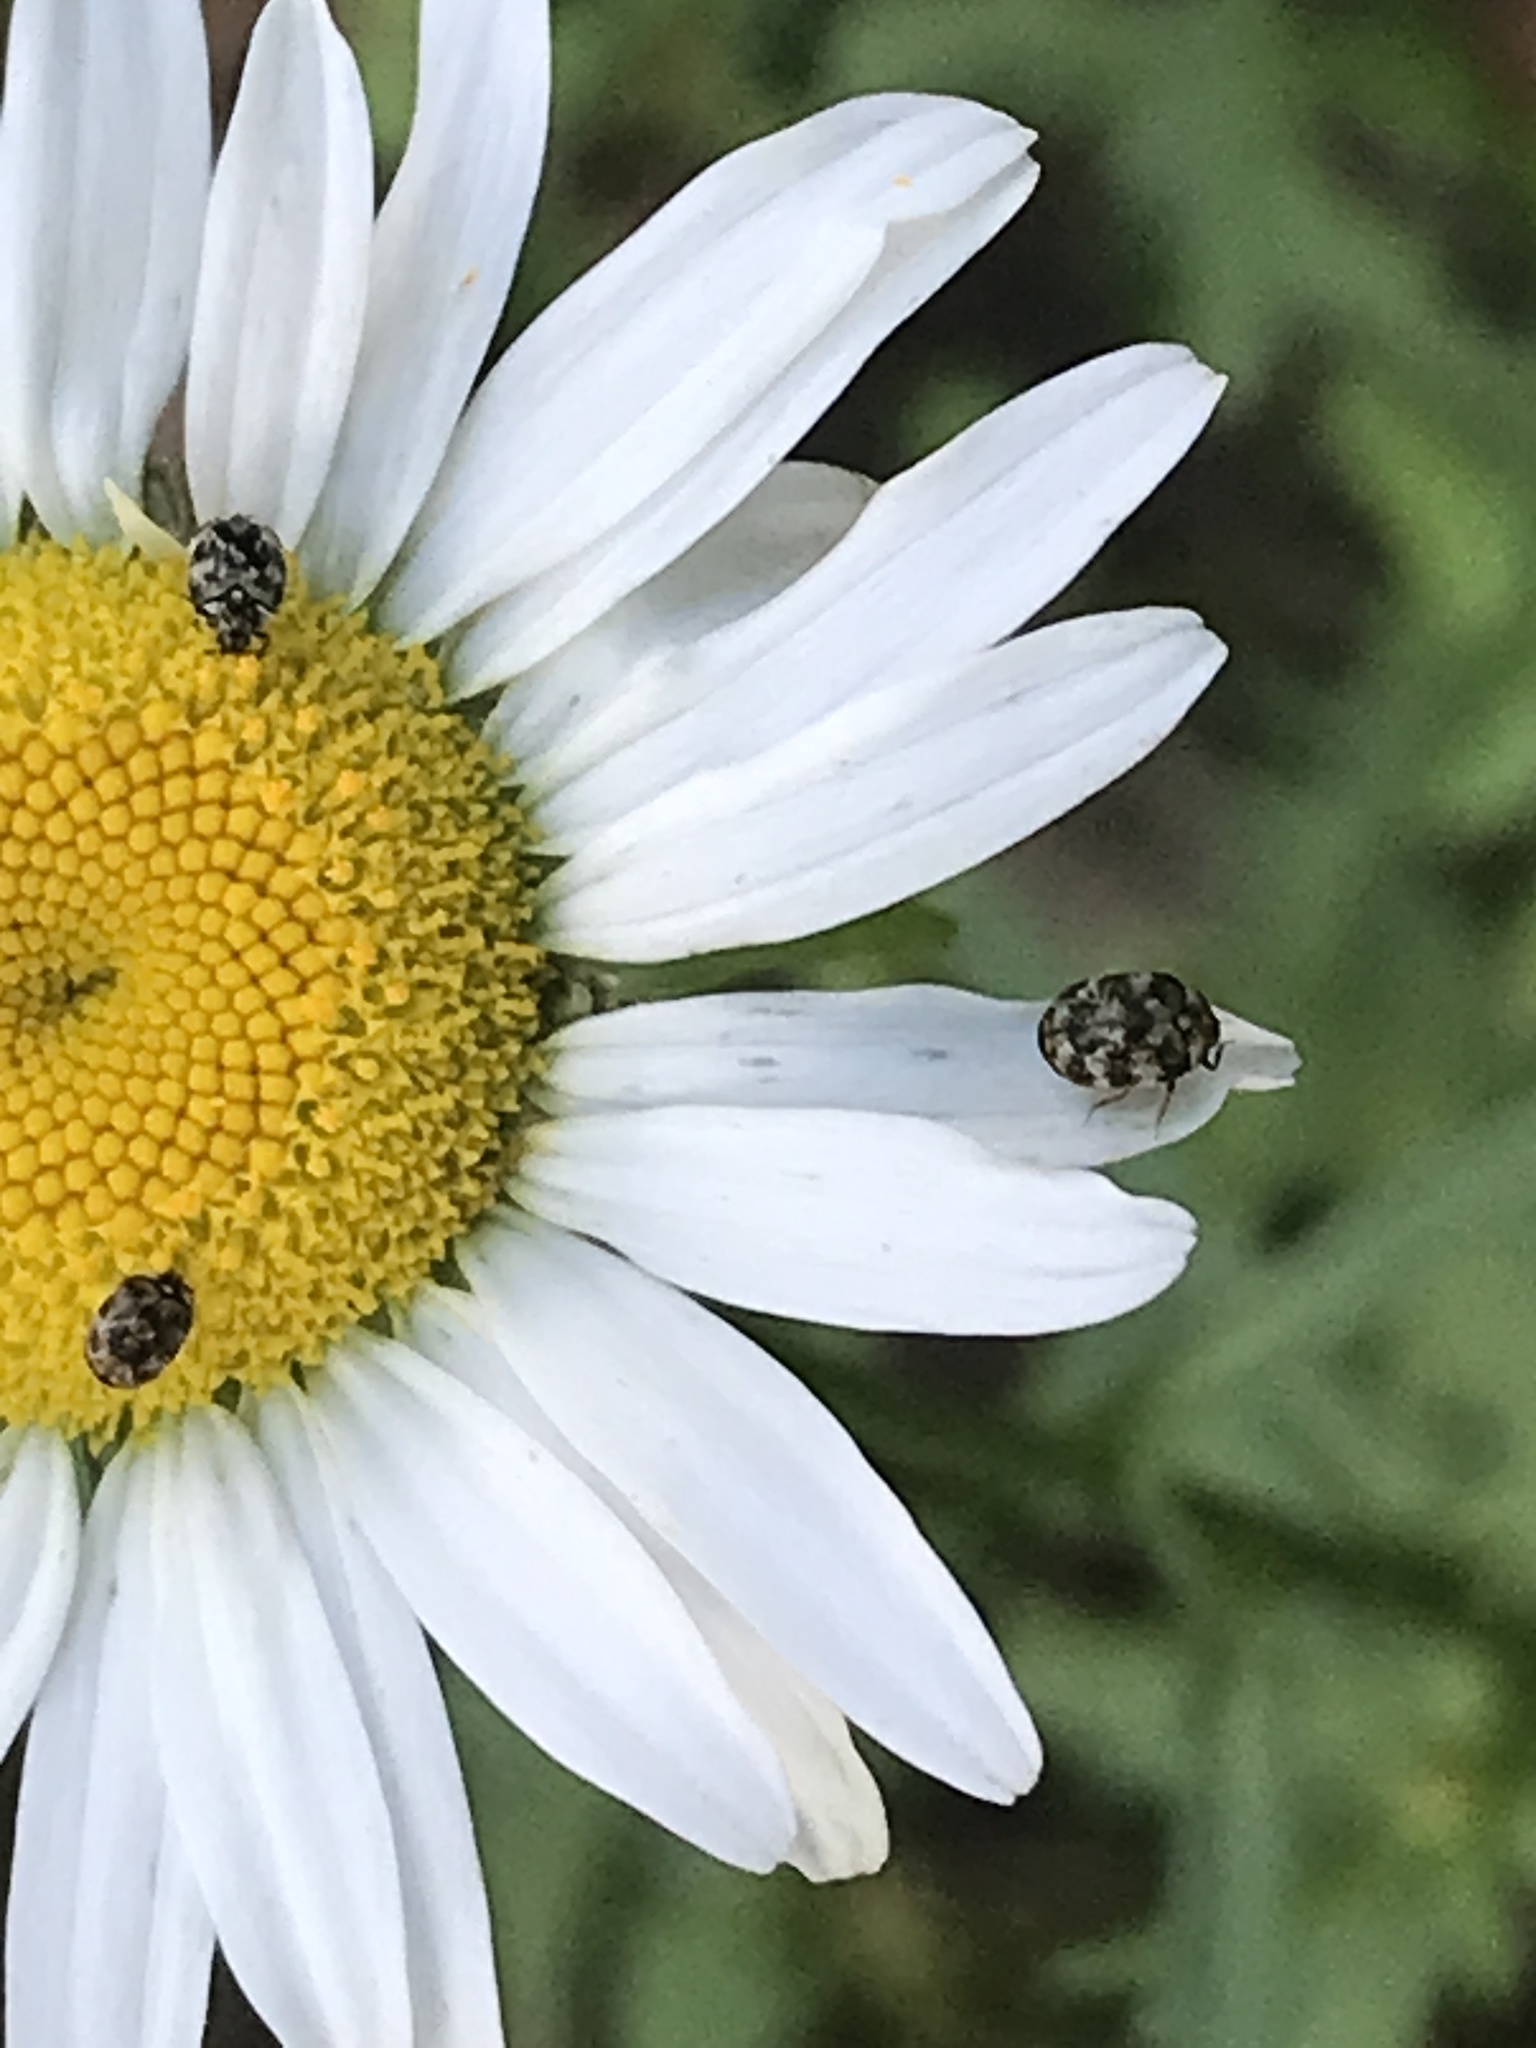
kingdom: Animalia
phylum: Arthropoda
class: Insecta
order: Coleoptera
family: Dermestidae
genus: Anthrenus
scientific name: Anthrenus verbasci
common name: Varied carpet beetle
